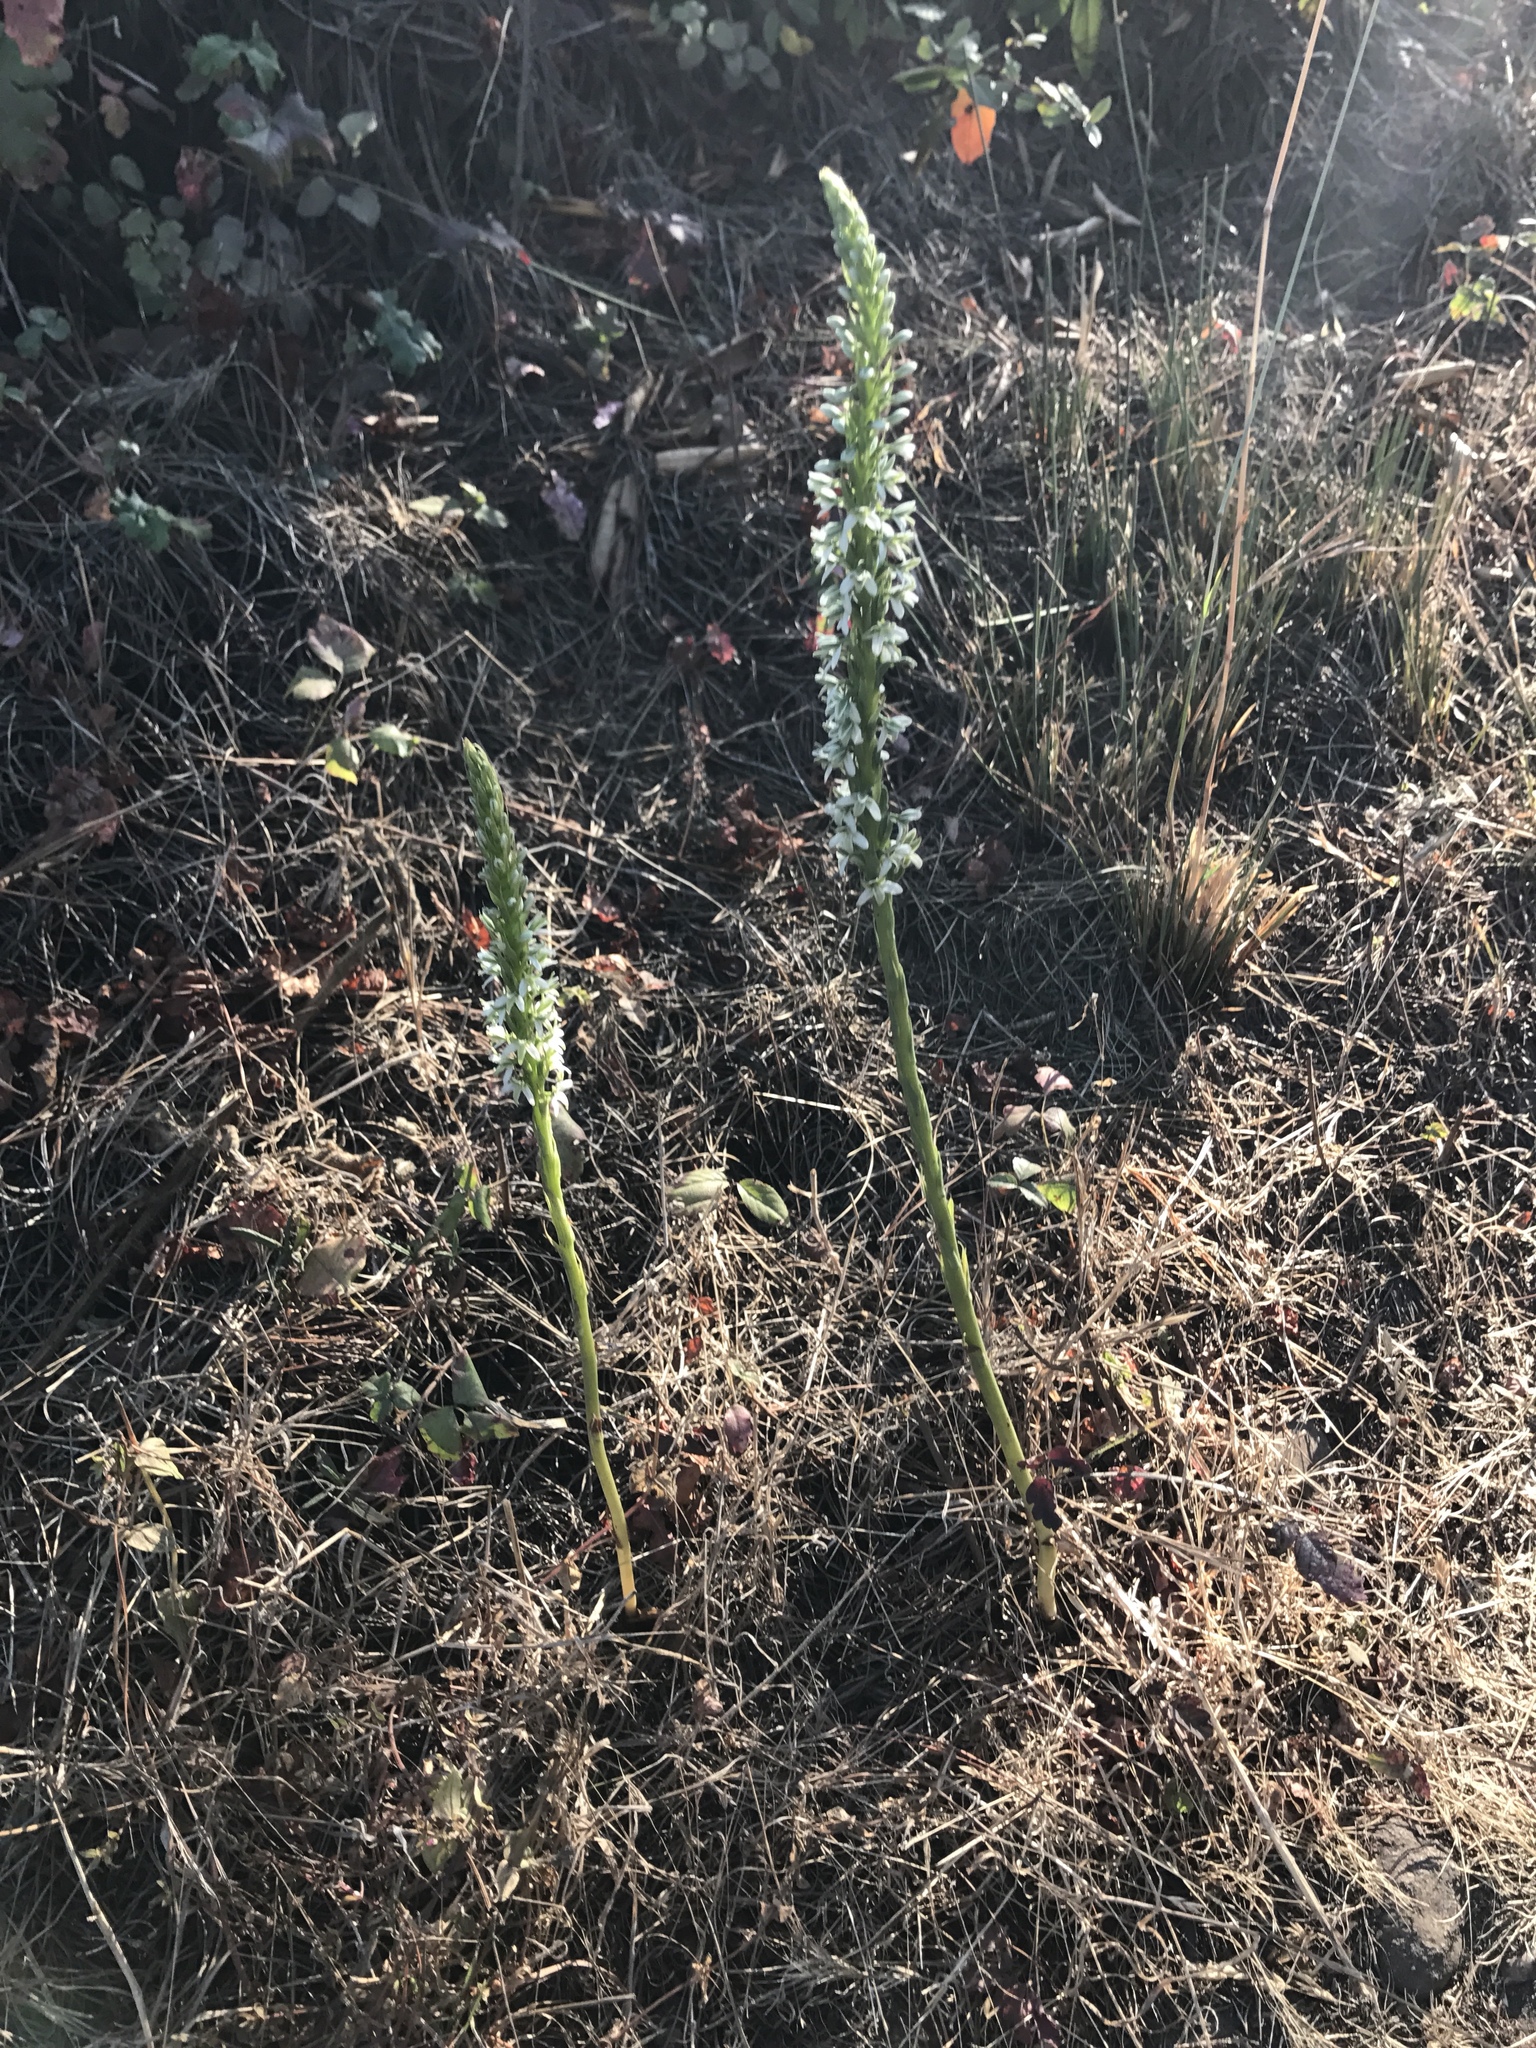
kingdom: Plantae
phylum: Tracheophyta
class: Liliopsida
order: Asparagales
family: Orchidaceae
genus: Platanthera
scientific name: Platanthera elegans
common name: Coast piperia
